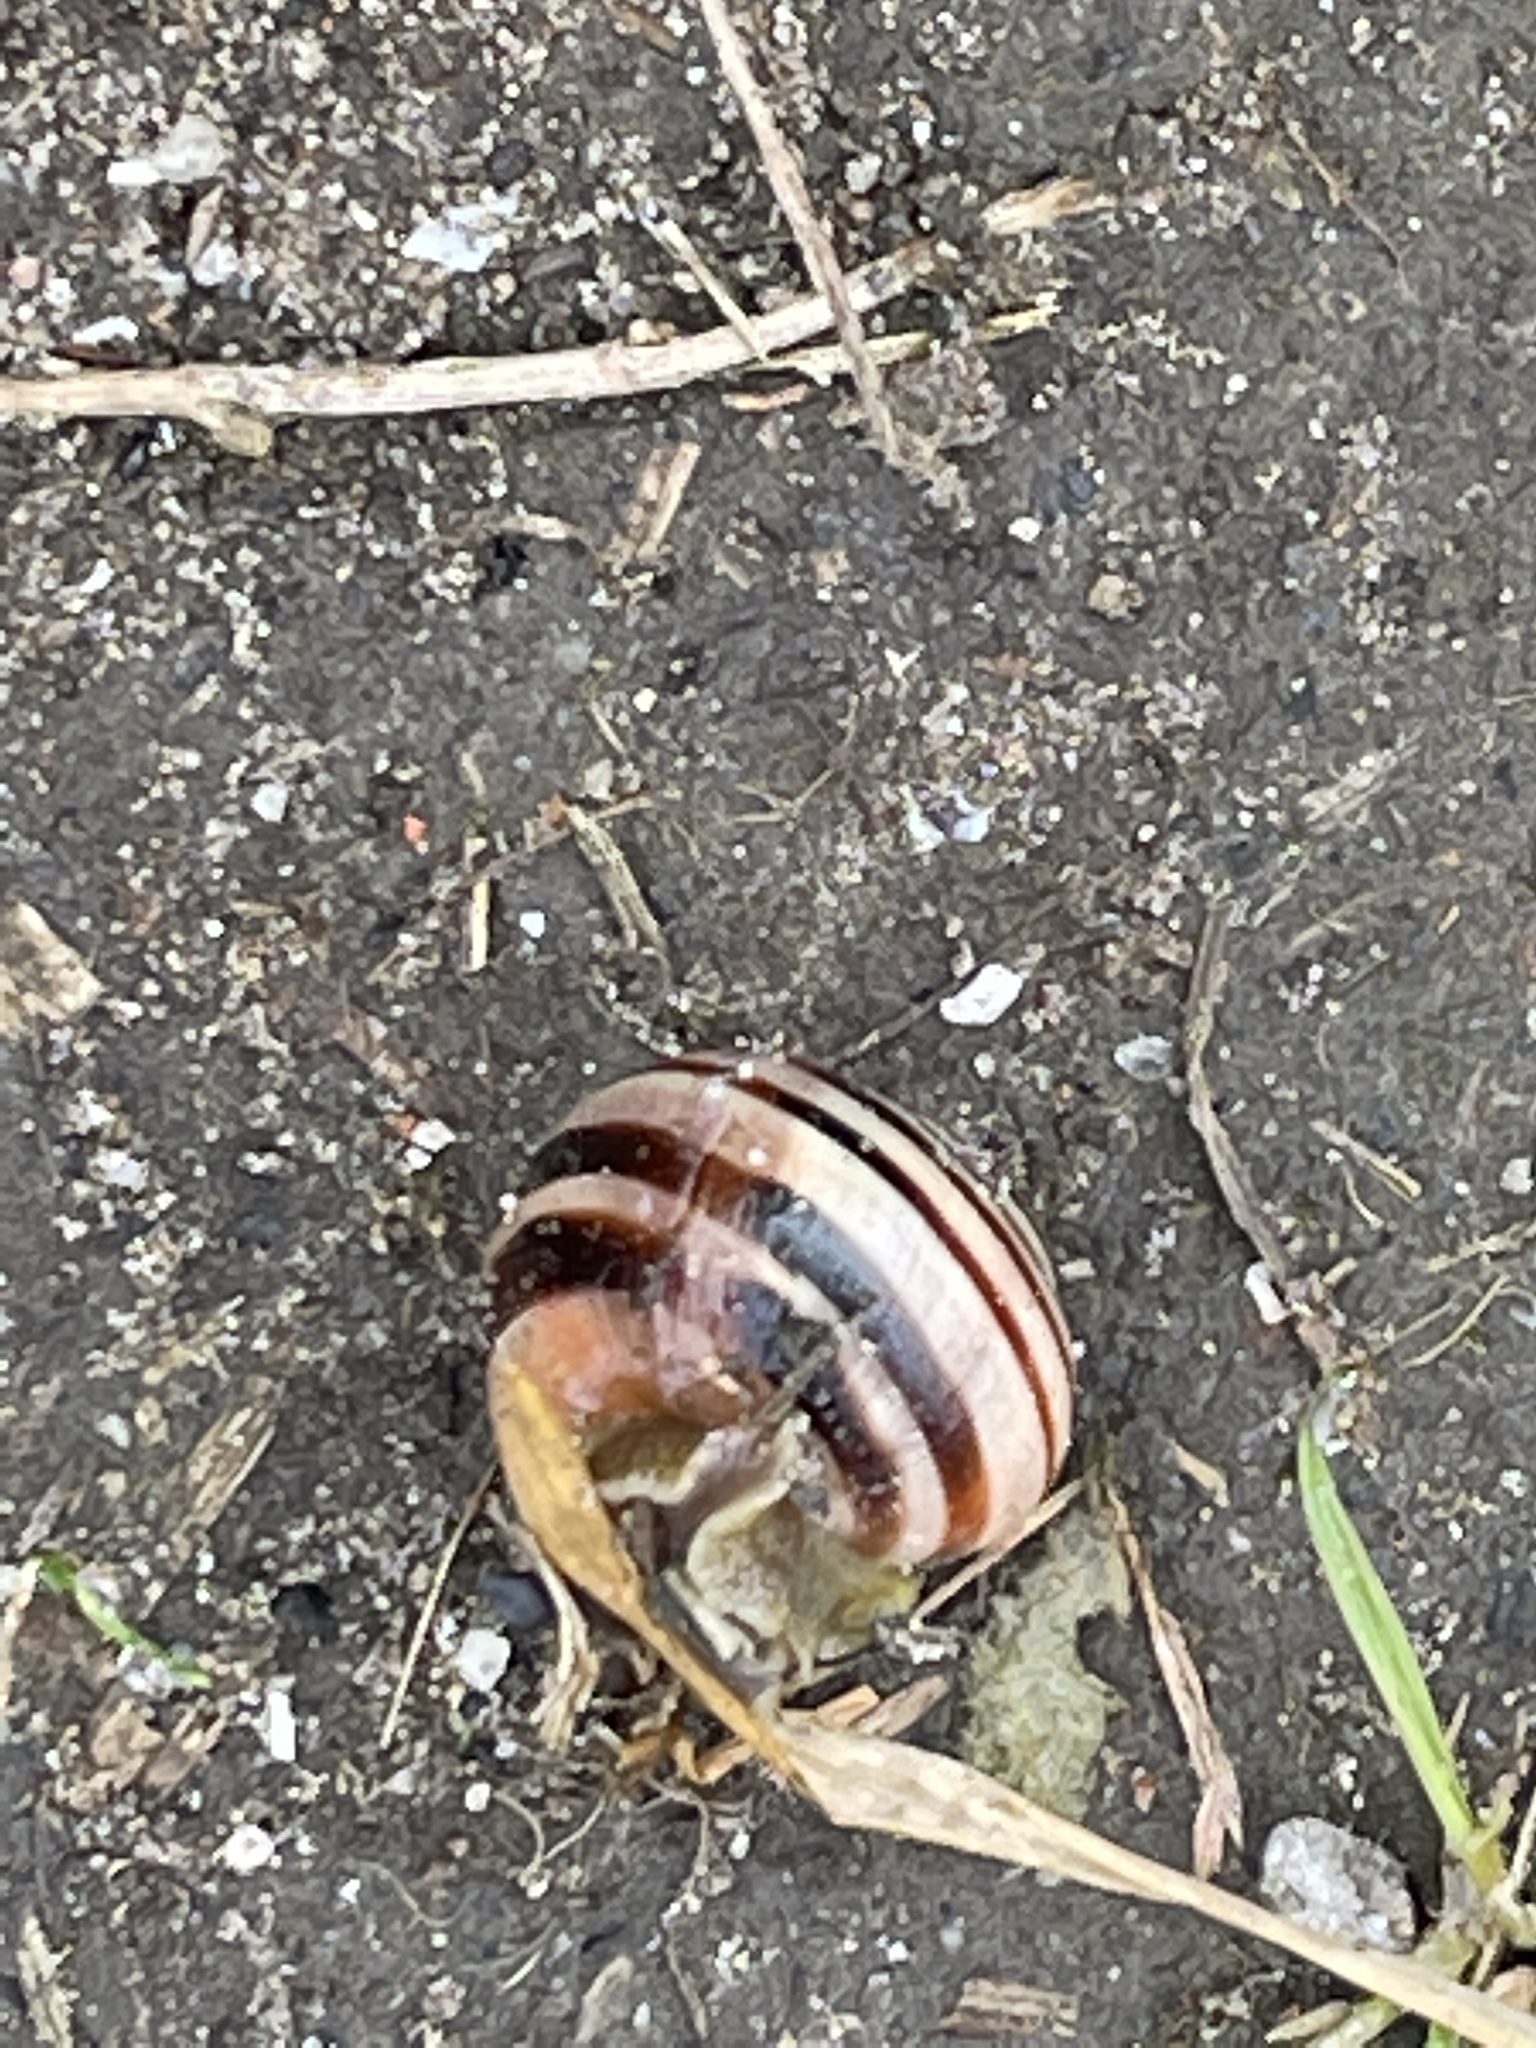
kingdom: Animalia
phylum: Mollusca
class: Gastropoda
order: Stylommatophora
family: Helicidae
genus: Cepaea
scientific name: Cepaea nemoralis
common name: Grovesnail
